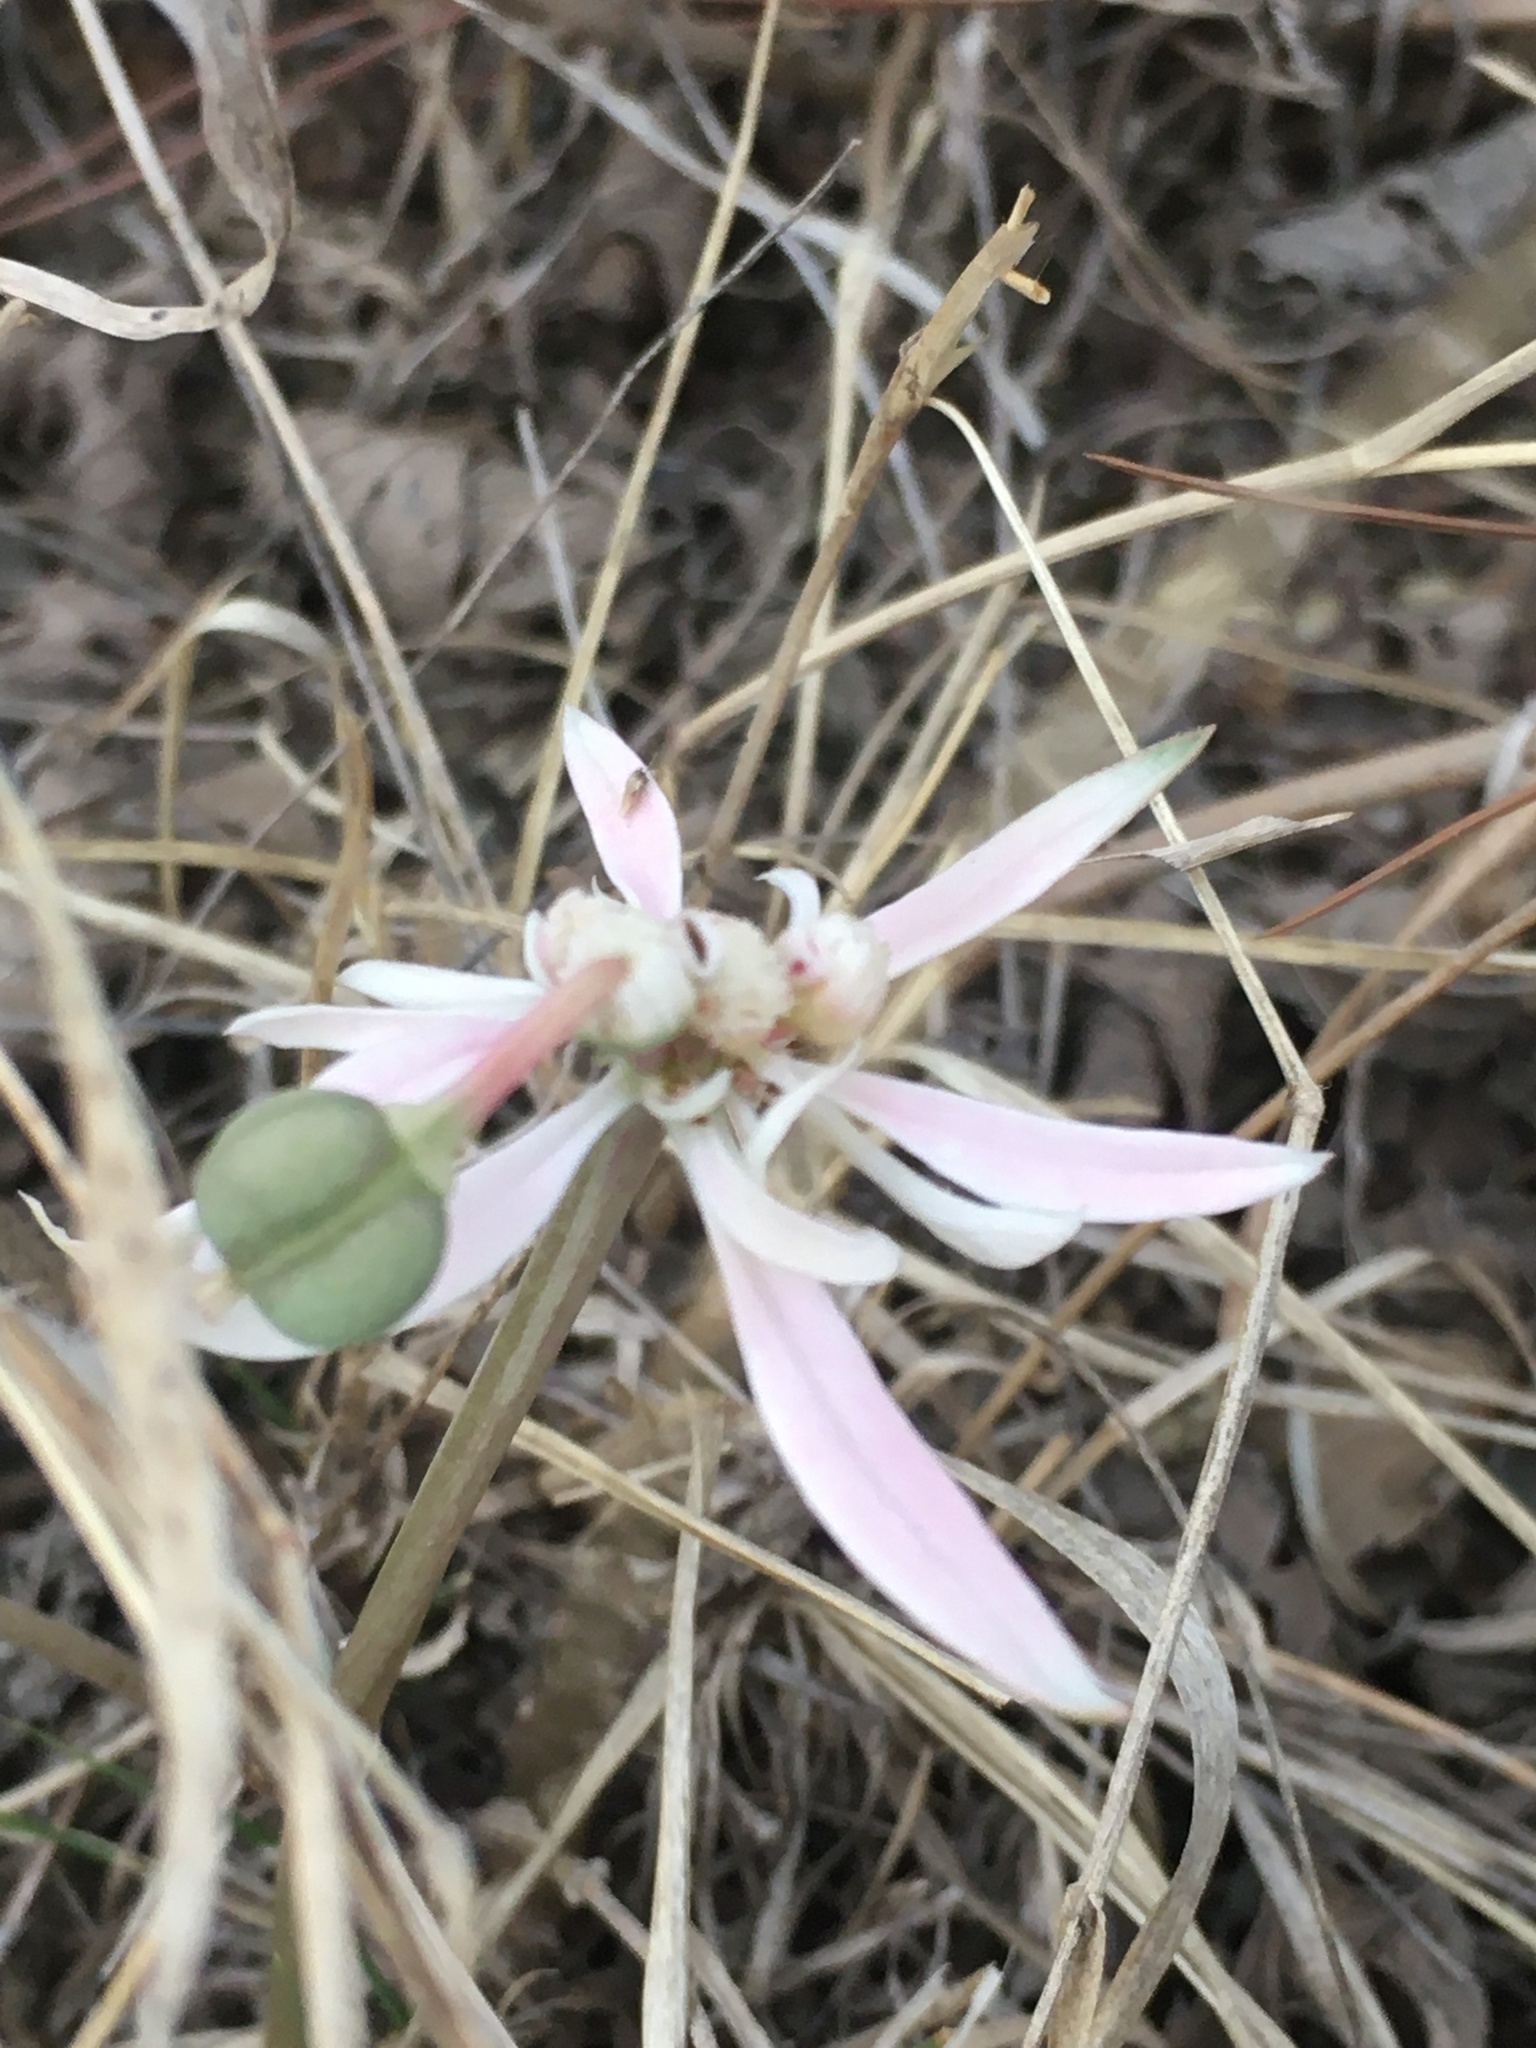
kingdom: Plantae
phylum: Tracheophyta
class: Magnoliopsida
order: Malpighiales
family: Euphorbiaceae
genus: Euphorbia
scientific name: Euphorbia radians
